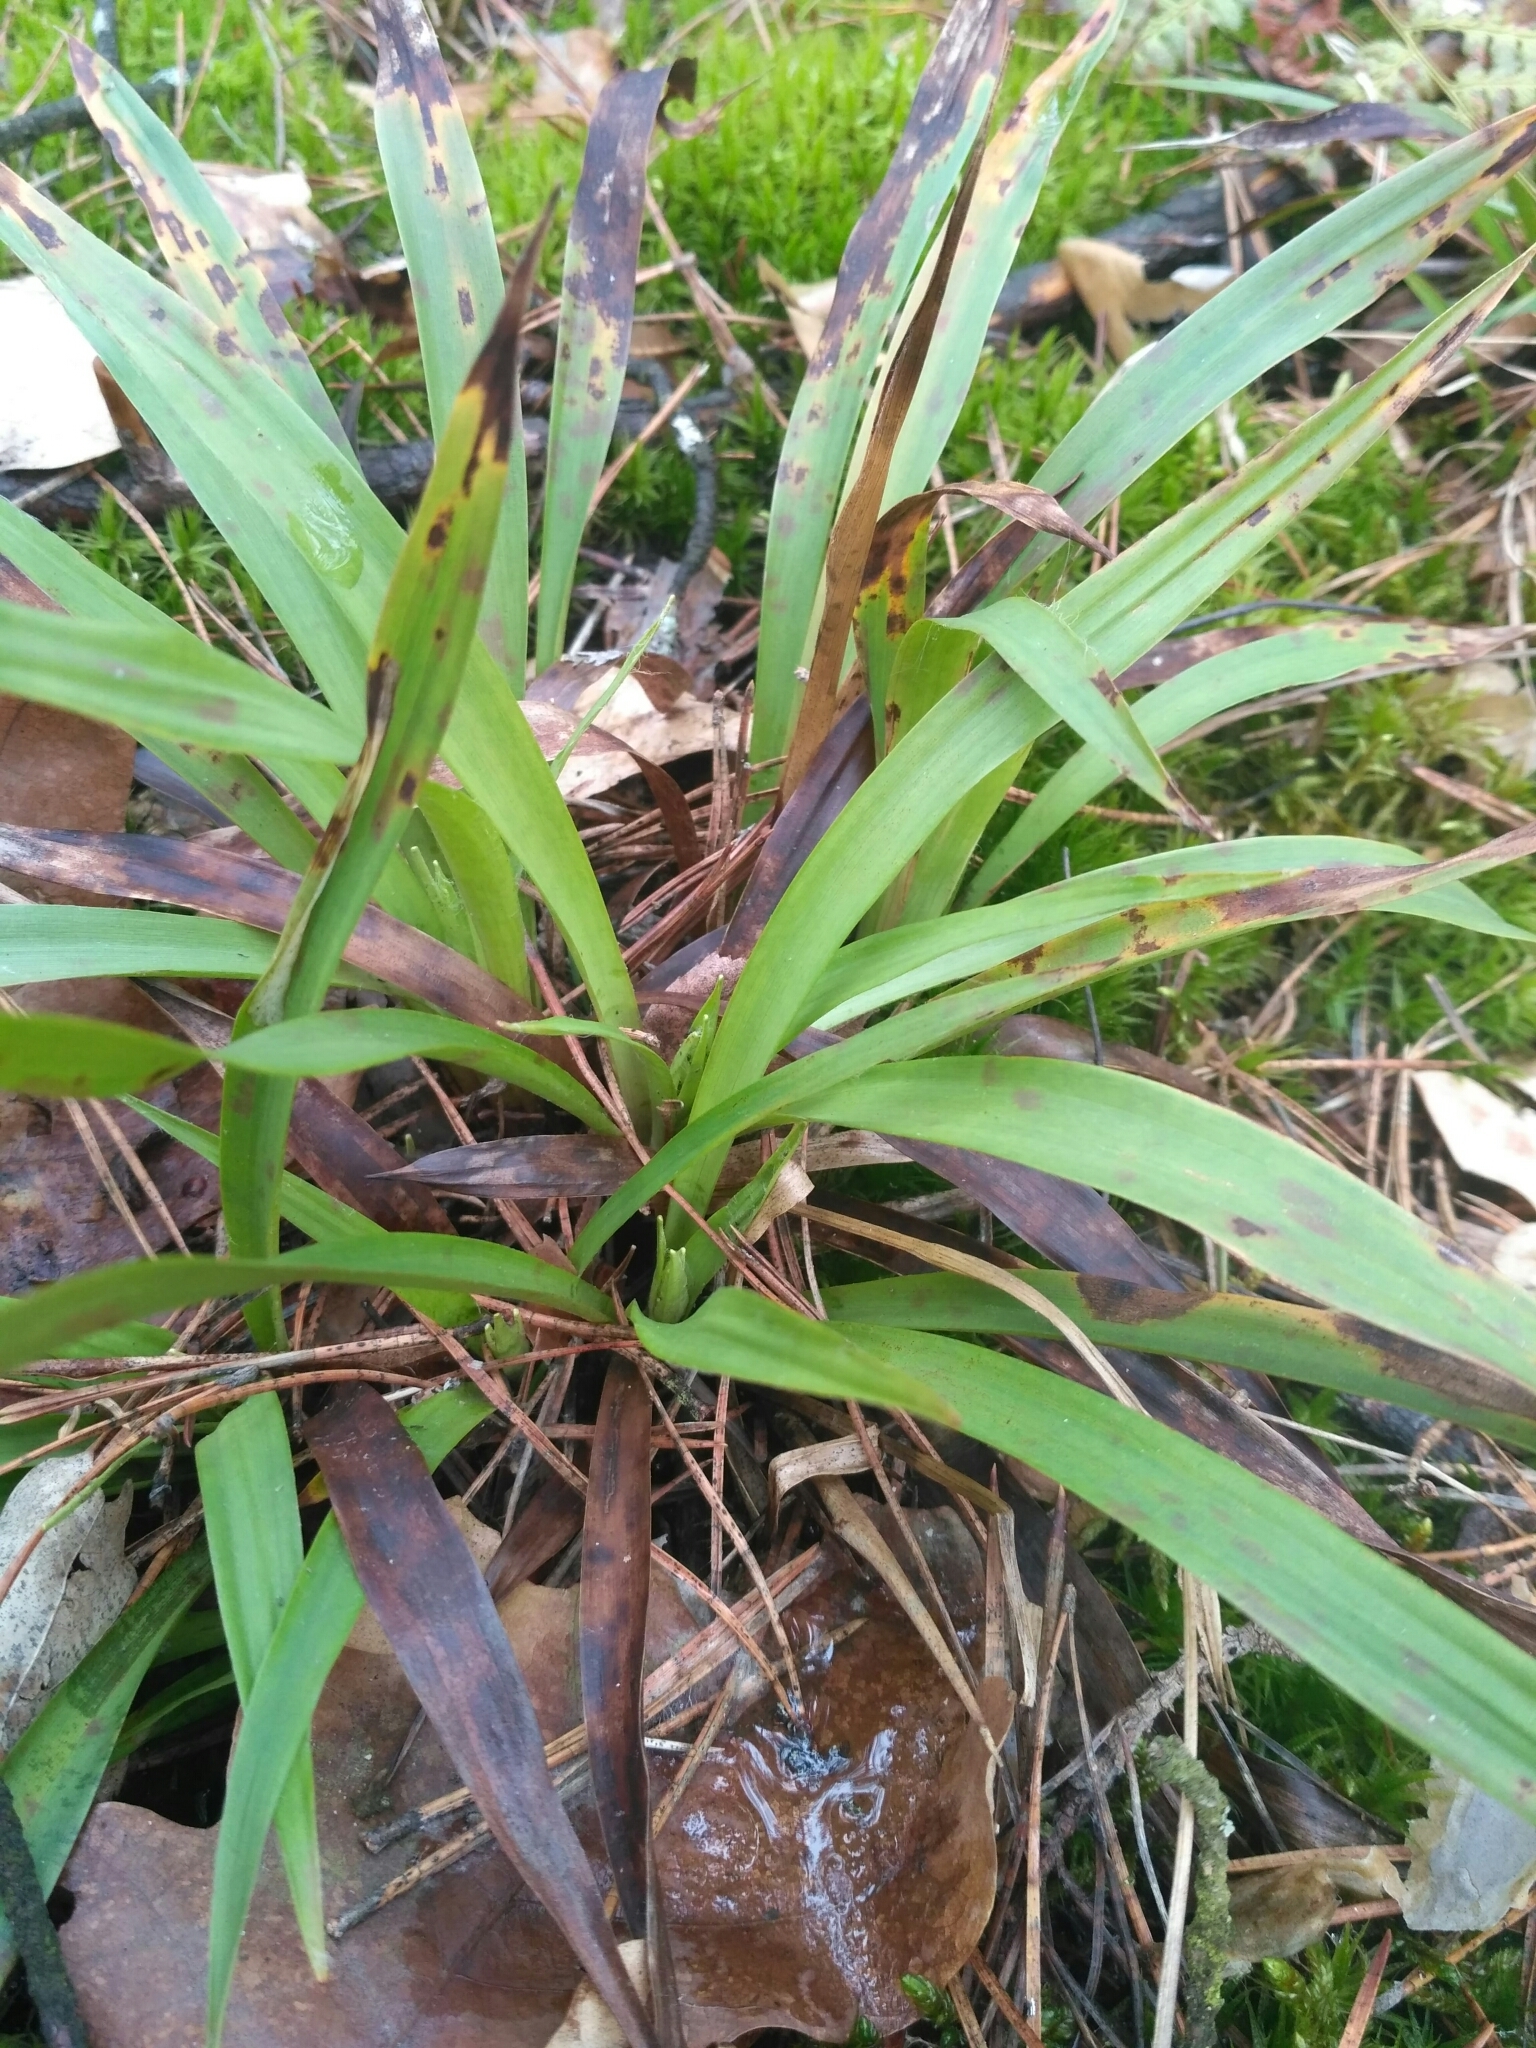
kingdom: Plantae
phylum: Tracheophyta
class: Liliopsida
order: Poales
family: Juncaceae
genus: Luzula
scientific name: Luzula pilosa
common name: Hairy wood-rush
